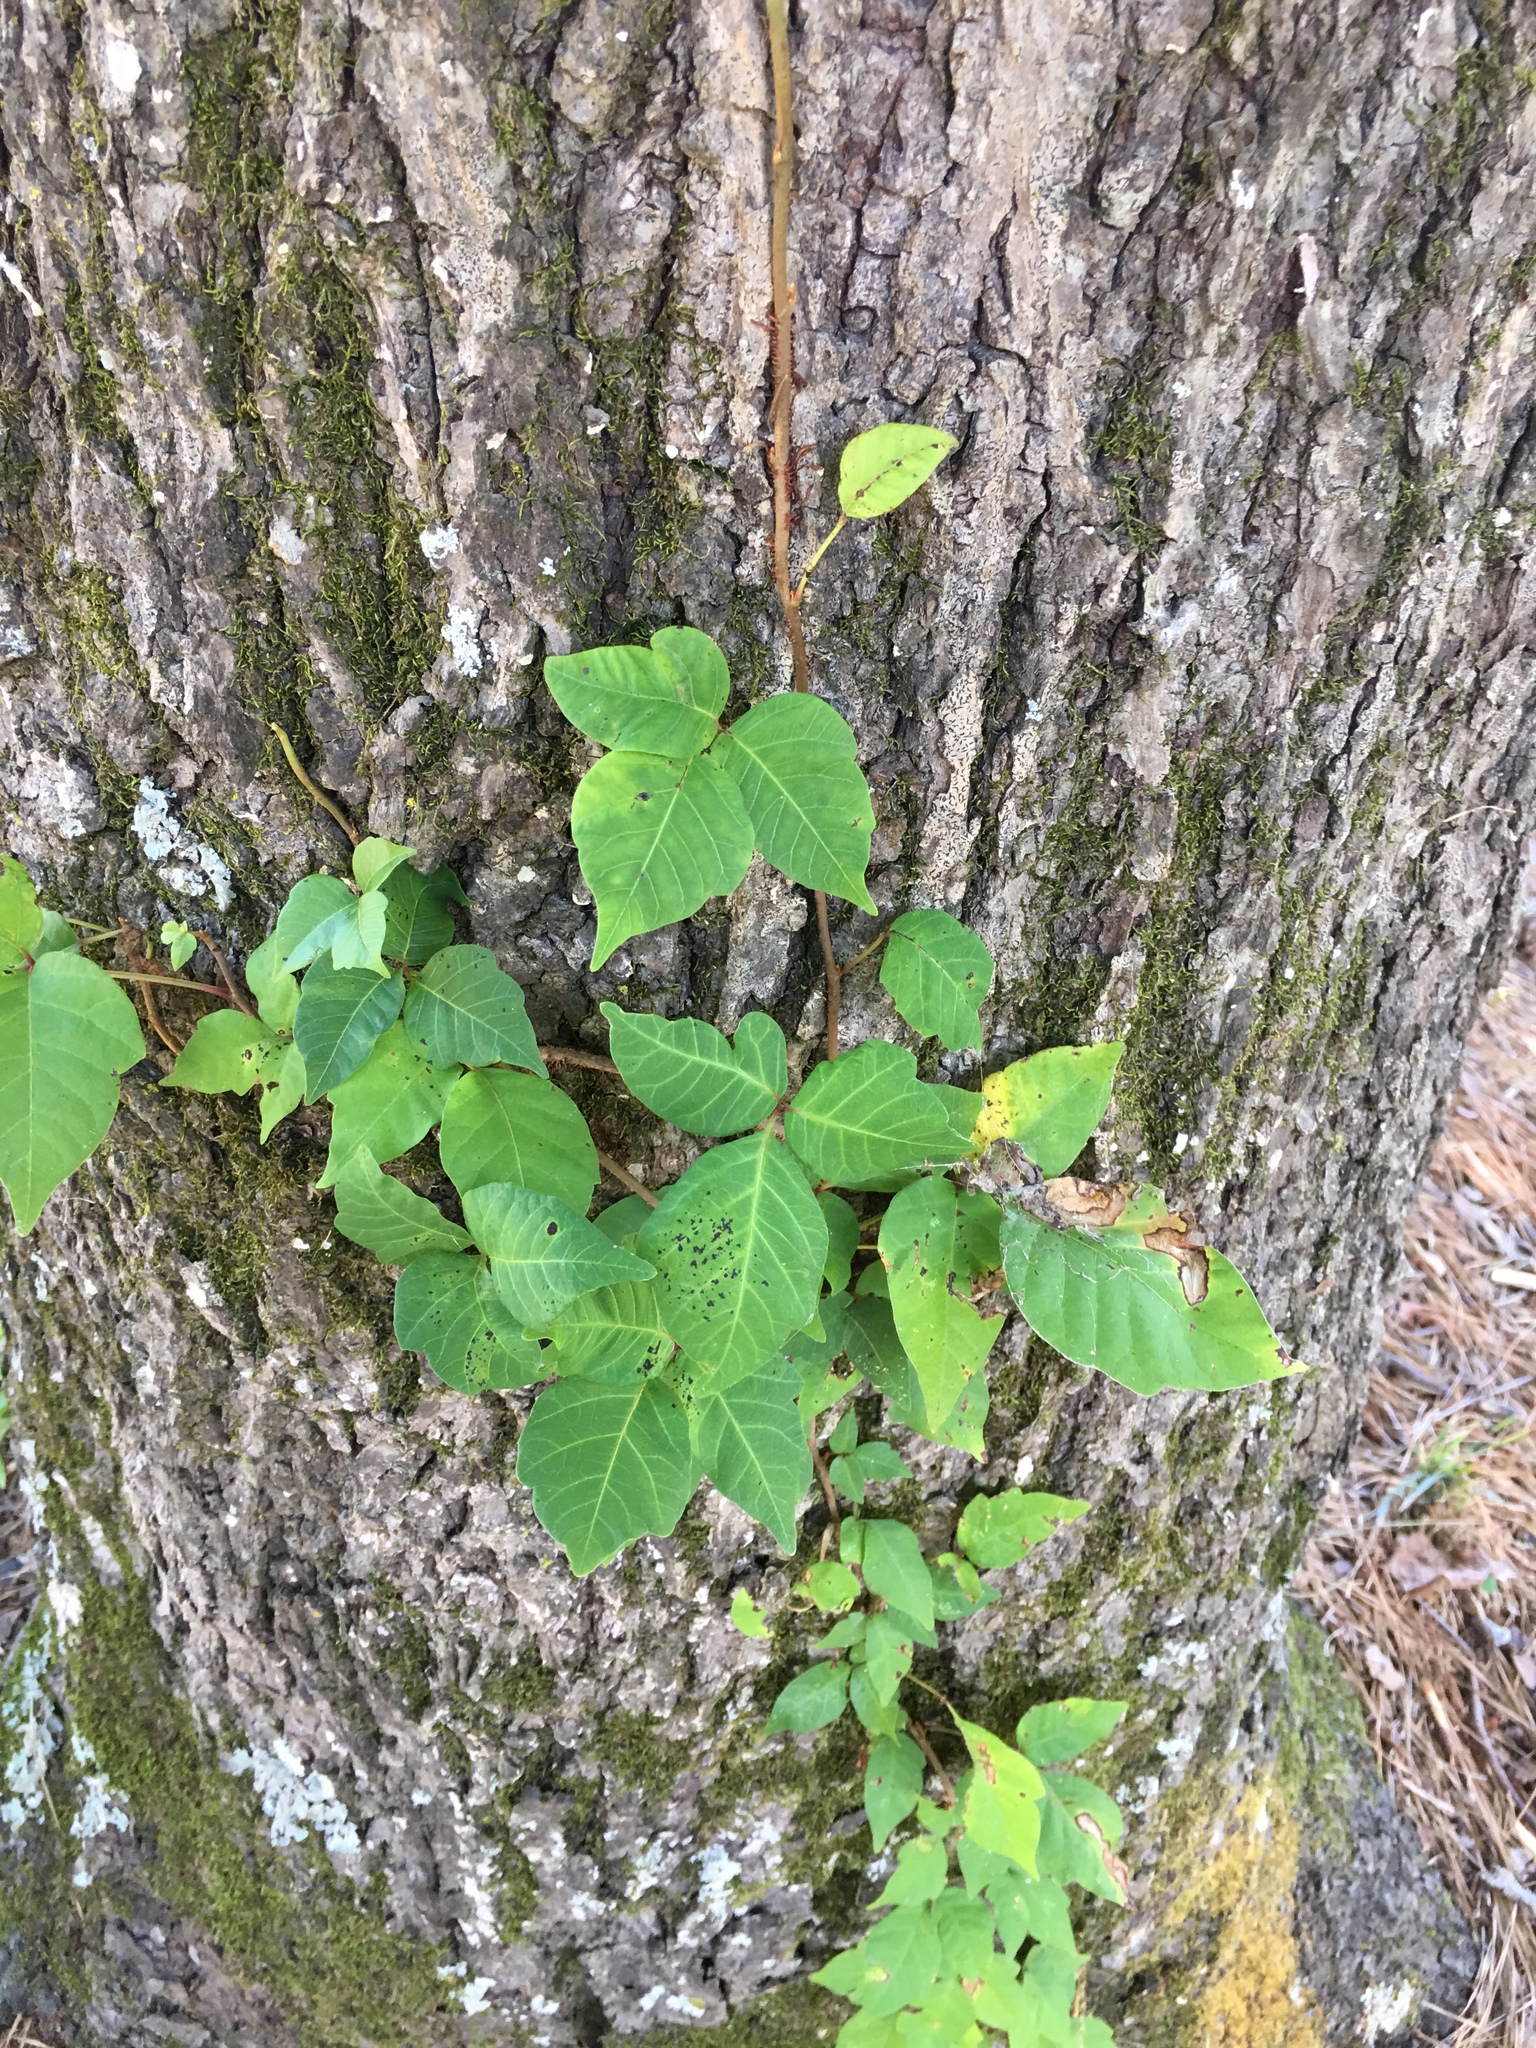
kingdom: Plantae
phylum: Tracheophyta
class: Magnoliopsida
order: Sapindales
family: Anacardiaceae
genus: Toxicodendron
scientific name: Toxicodendron radicans
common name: Poison ivy
